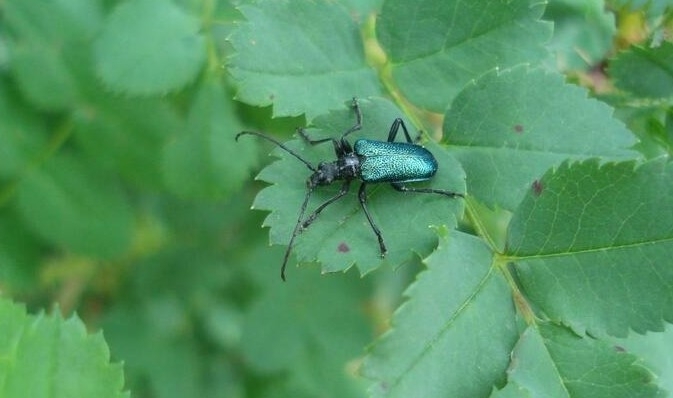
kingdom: Animalia
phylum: Arthropoda
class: Insecta
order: Coleoptera
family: Cerambycidae
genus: Gaurotes
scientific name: Gaurotes virginea
